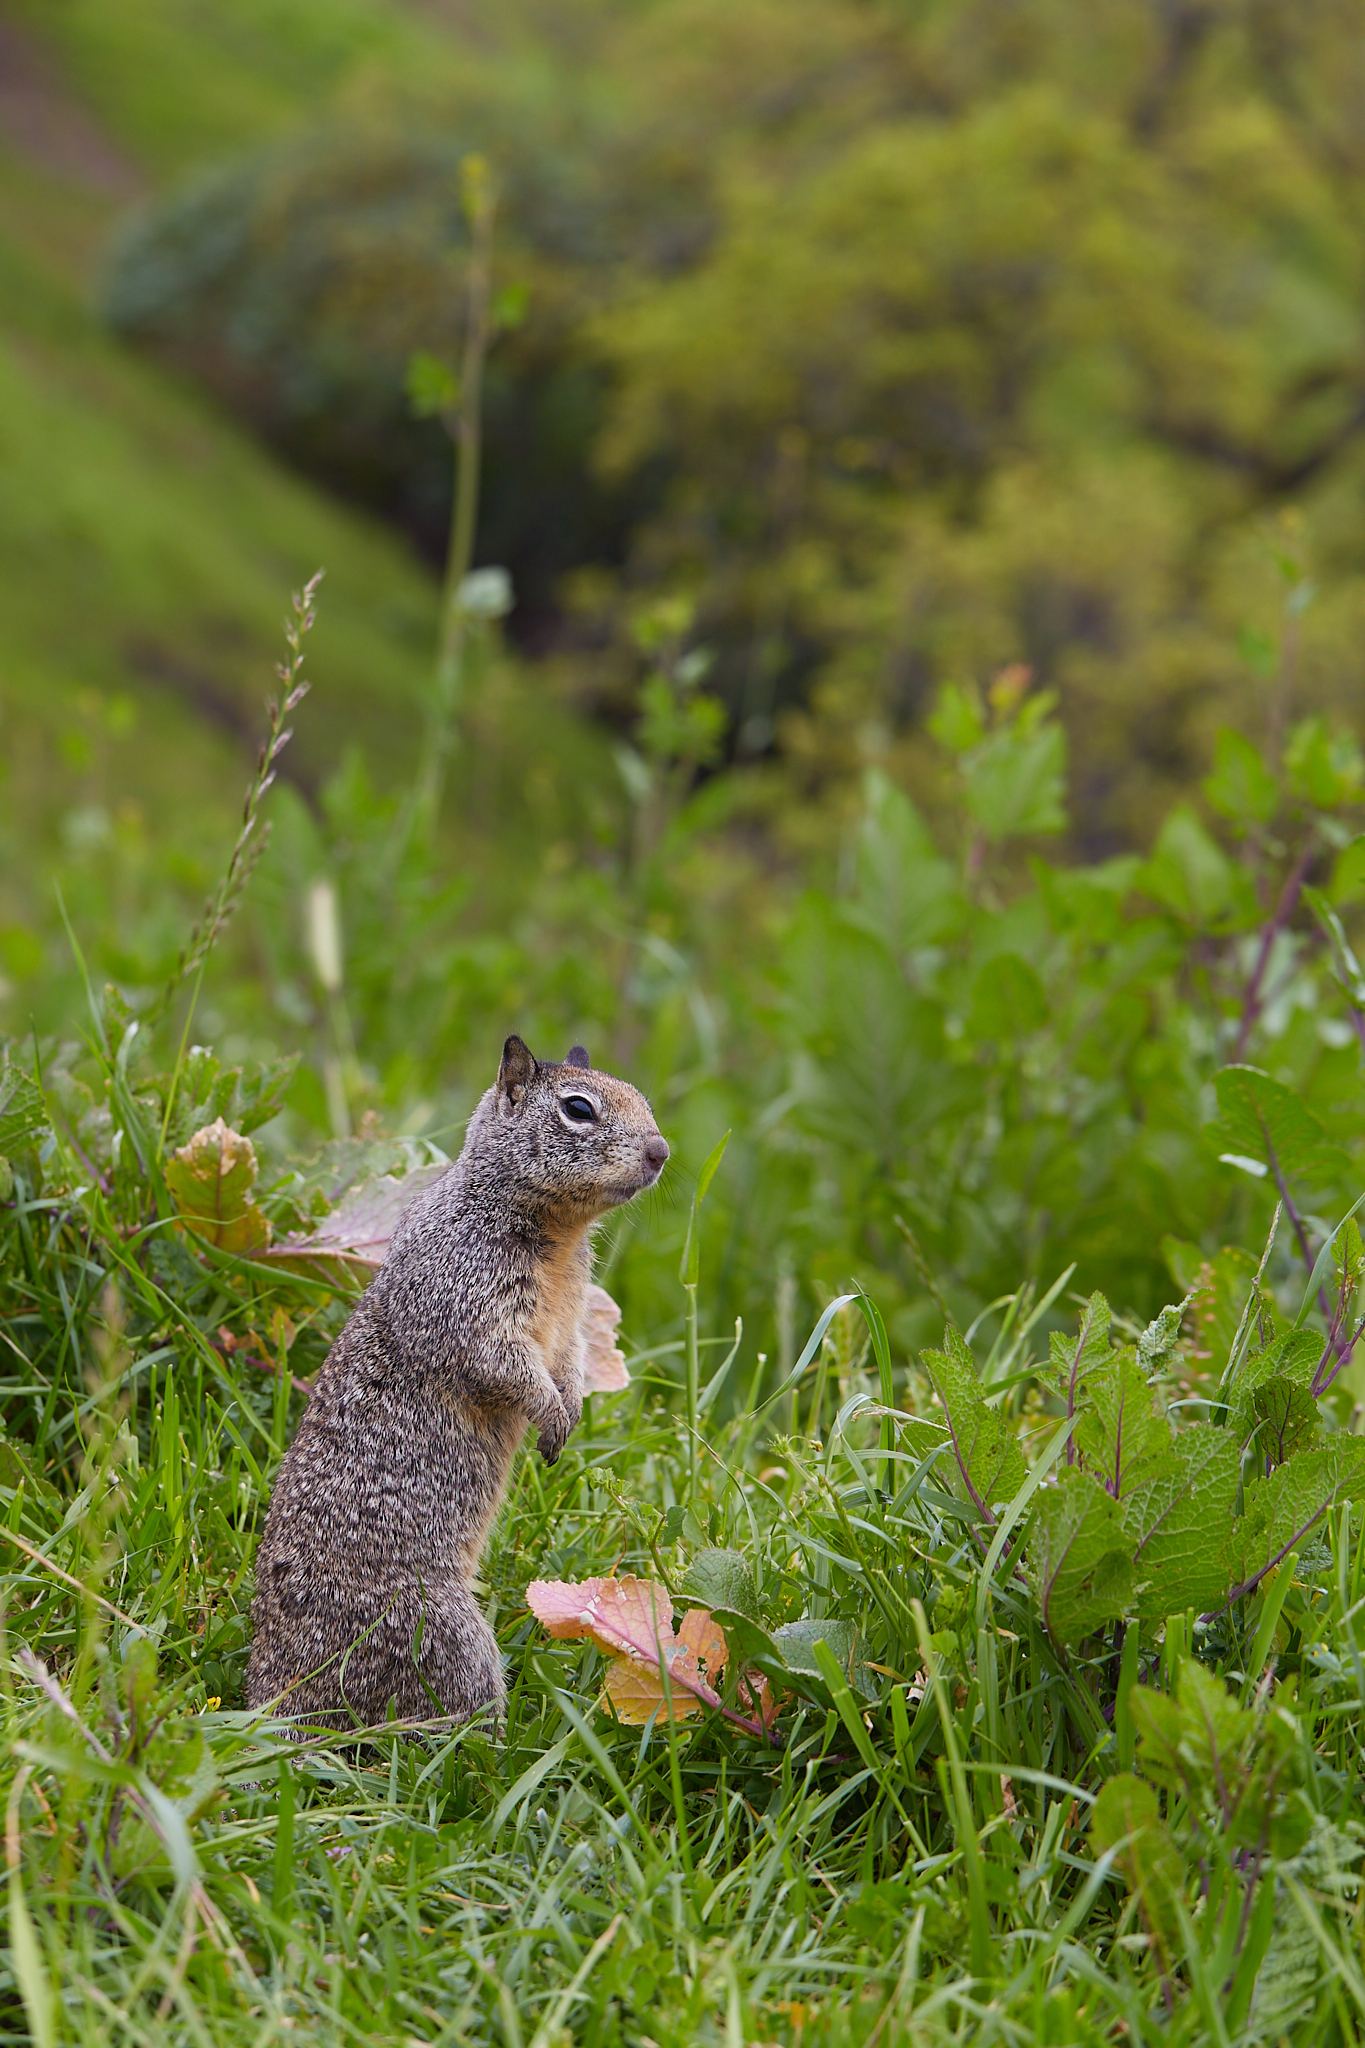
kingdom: Animalia
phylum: Chordata
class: Mammalia
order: Rodentia
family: Sciuridae
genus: Otospermophilus
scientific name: Otospermophilus beecheyi
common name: California ground squirrel
